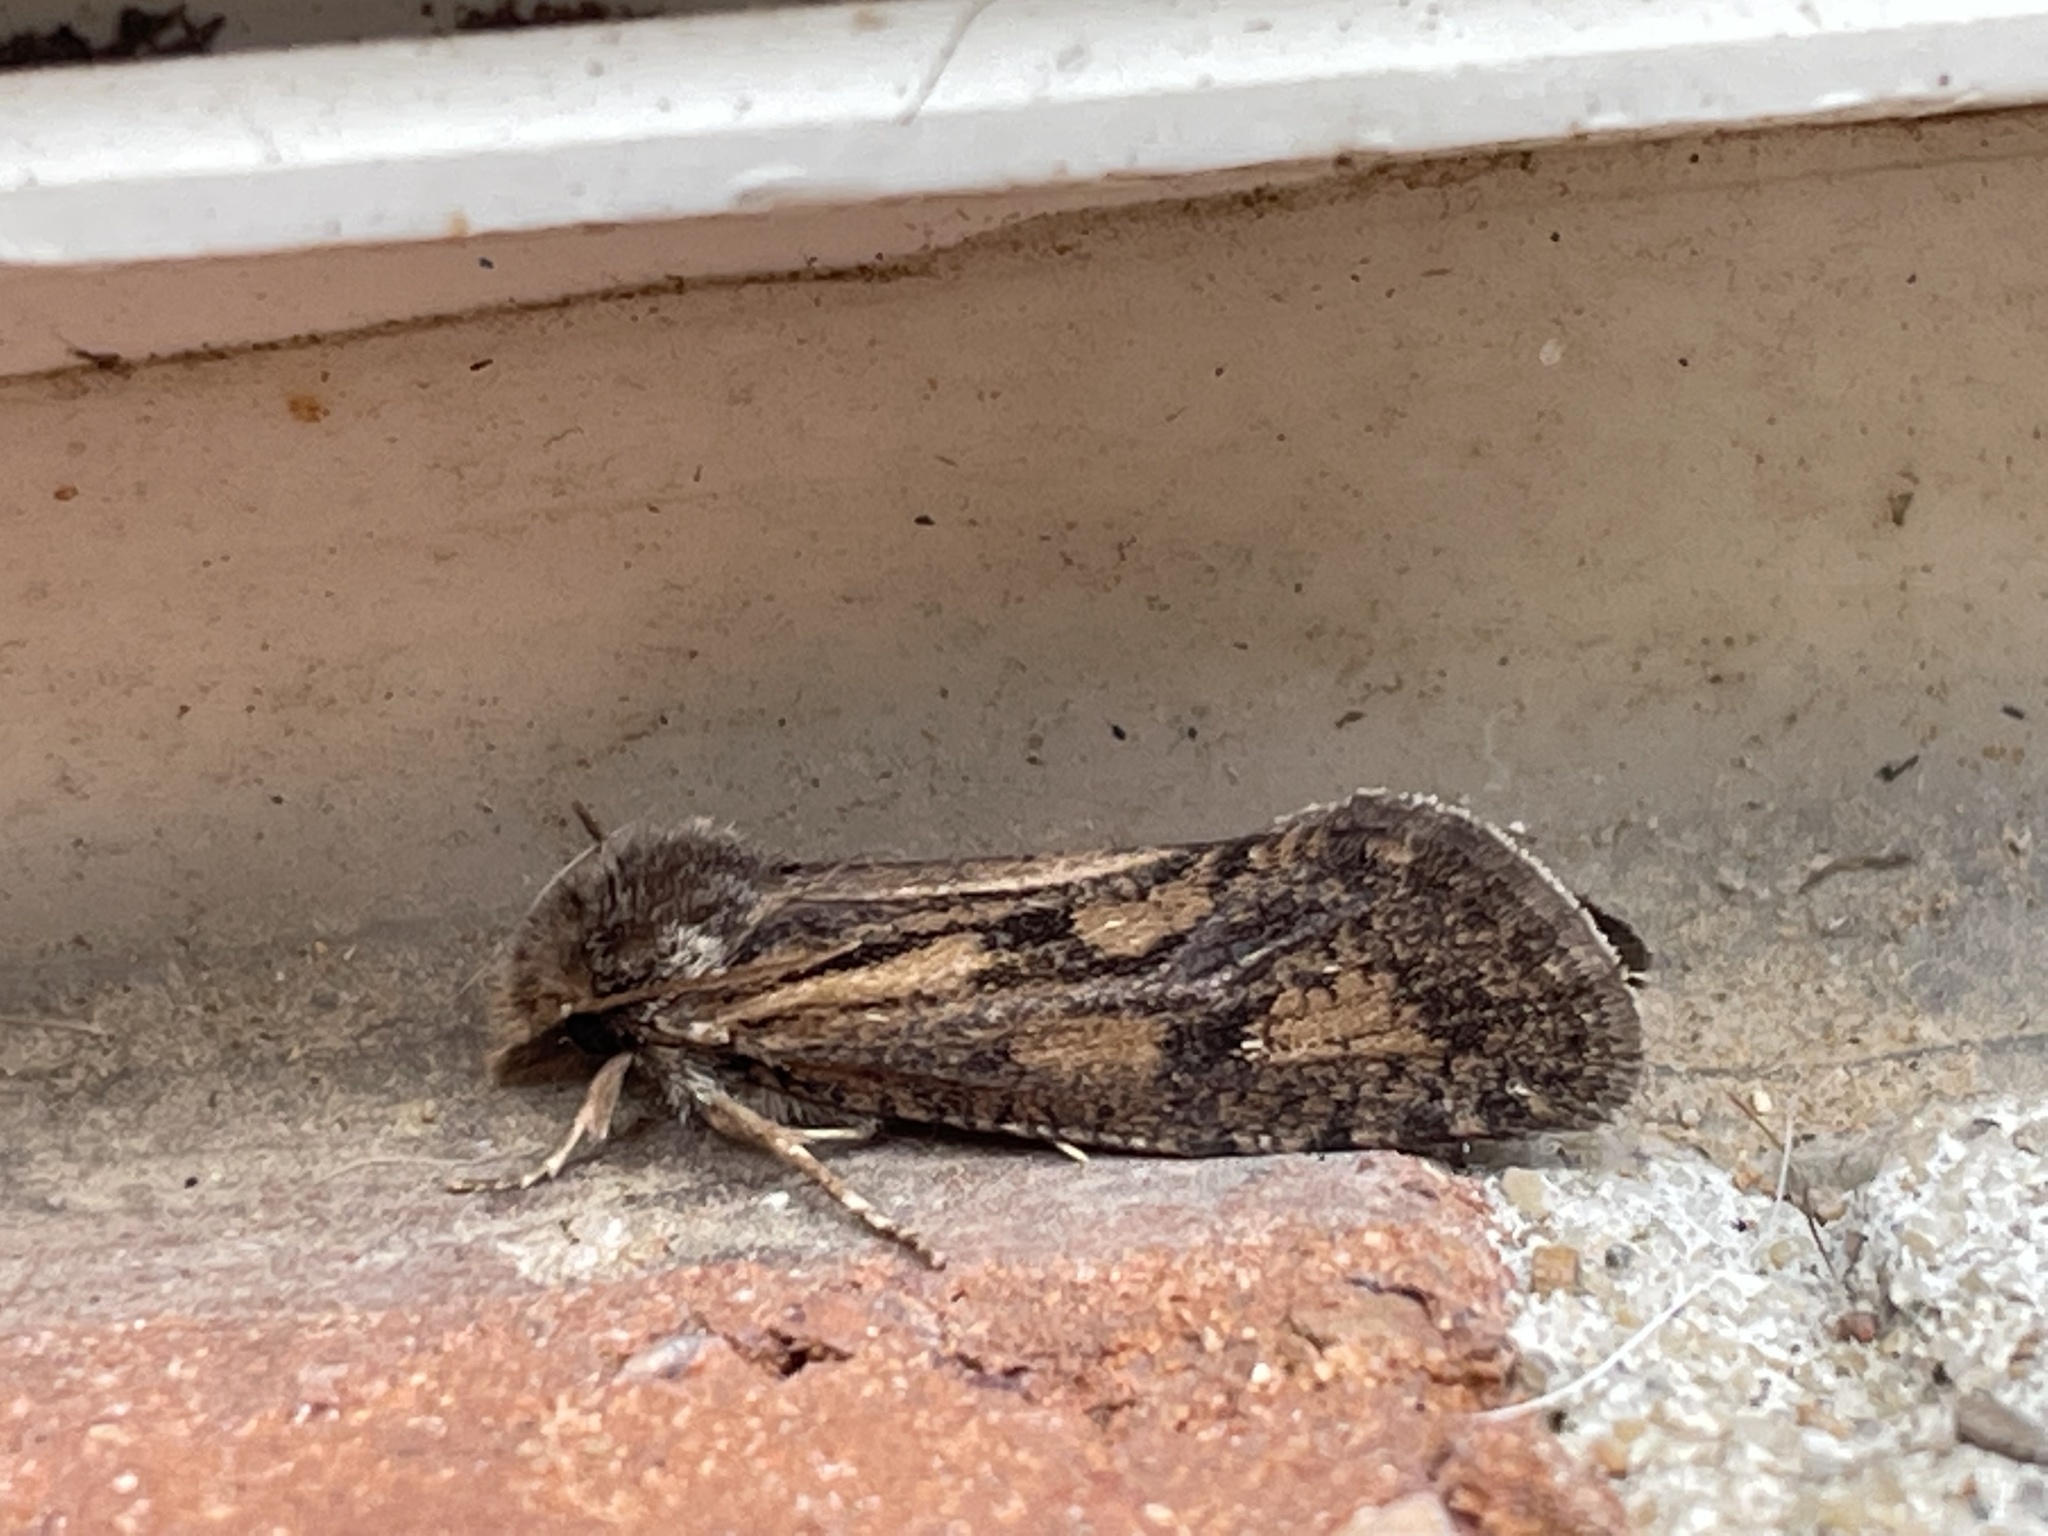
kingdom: Animalia
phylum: Arthropoda
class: Insecta
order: Lepidoptera
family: Tineidae
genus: Acrolophus
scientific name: Acrolophus popeanella
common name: Clemens' grass tubeworm moth
